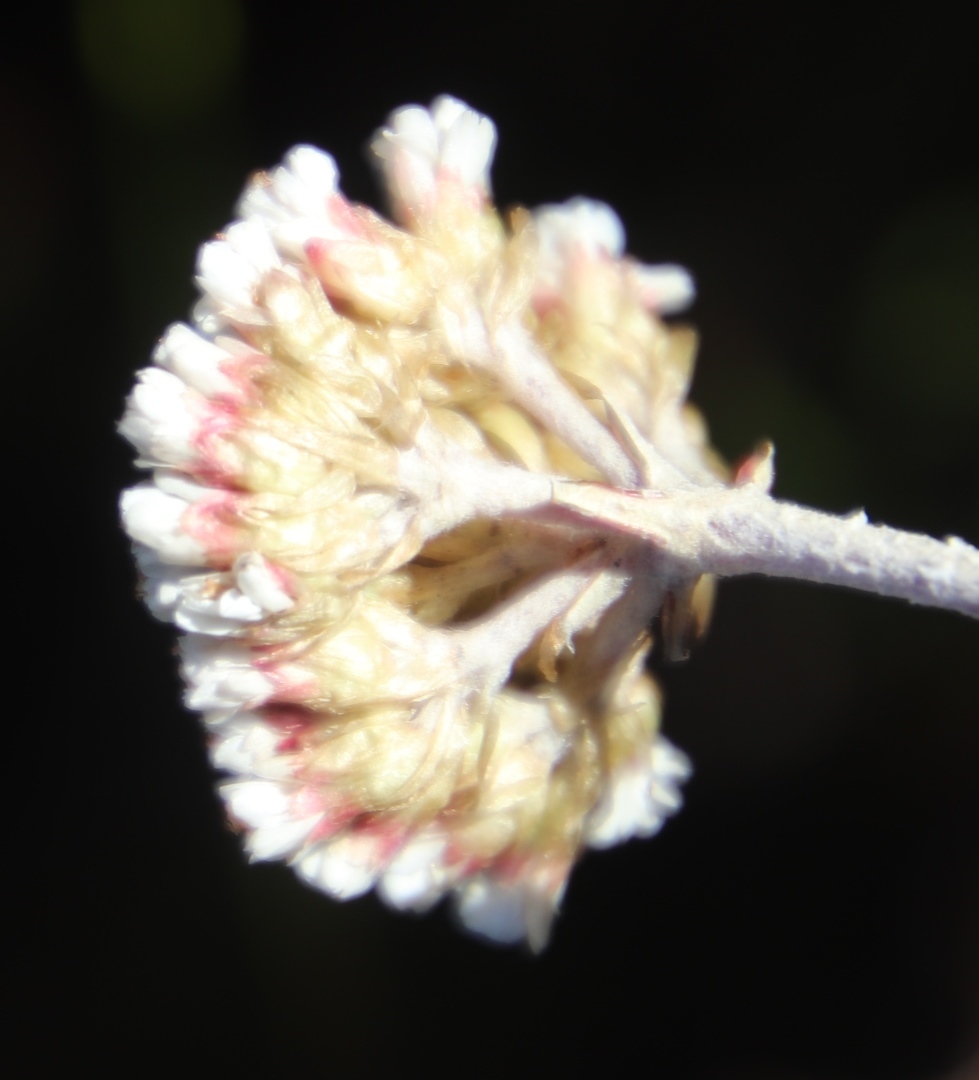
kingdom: Plantae
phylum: Tracheophyta
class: Magnoliopsida
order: Asterales
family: Asteraceae
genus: Anaxeton
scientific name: Anaxeton arborescens
